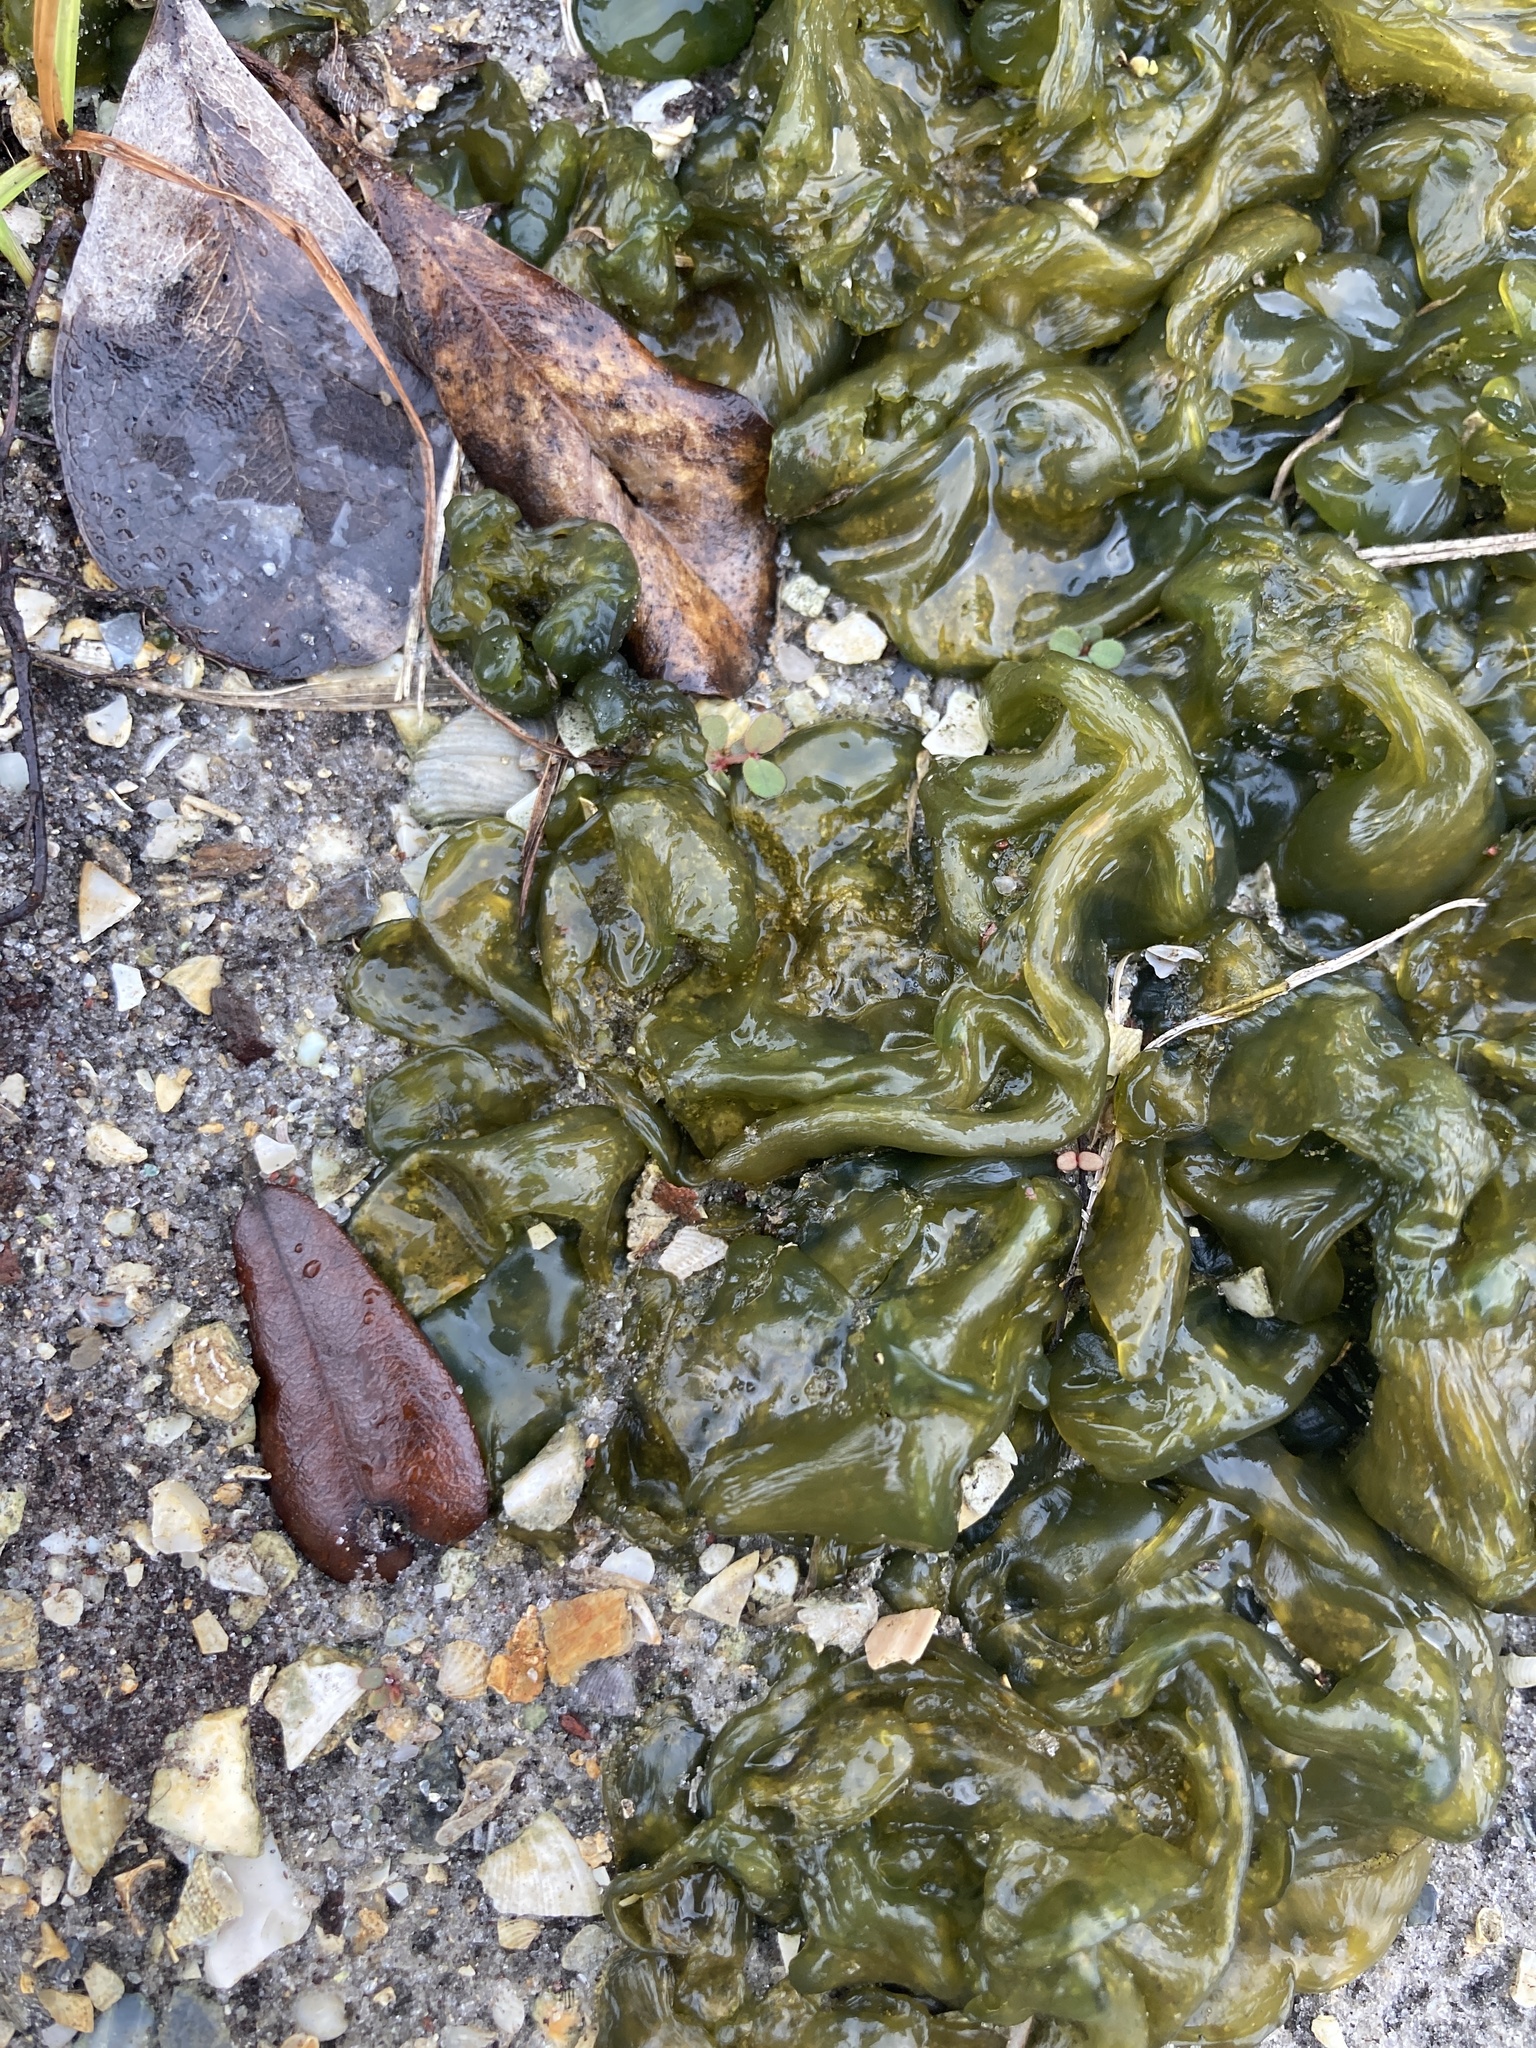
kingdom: Bacteria
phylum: Cyanobacteria
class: Cyanobacteriia
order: Cyanobacteriales
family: Nostocaceae
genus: Nostoc
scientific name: Nostoc commune
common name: Star jelly
